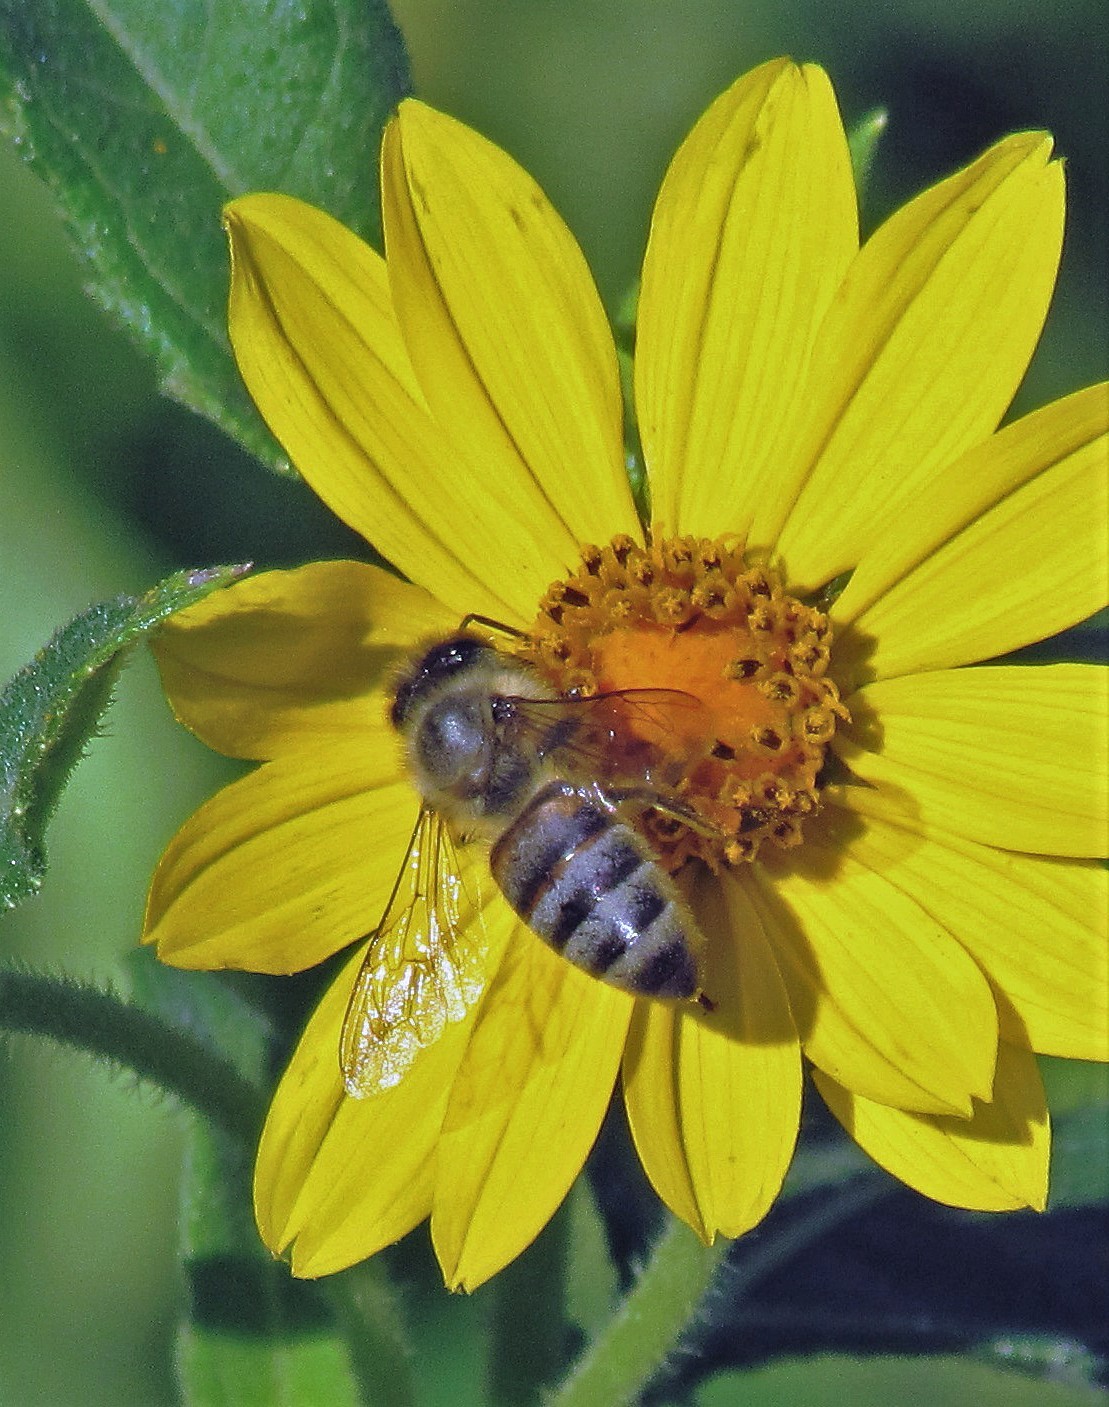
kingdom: Animalia
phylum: Arthropoda
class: Insecta
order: Hymenoptera
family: Apidae
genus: Apis
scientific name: Apis mellifera
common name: Honey bee
